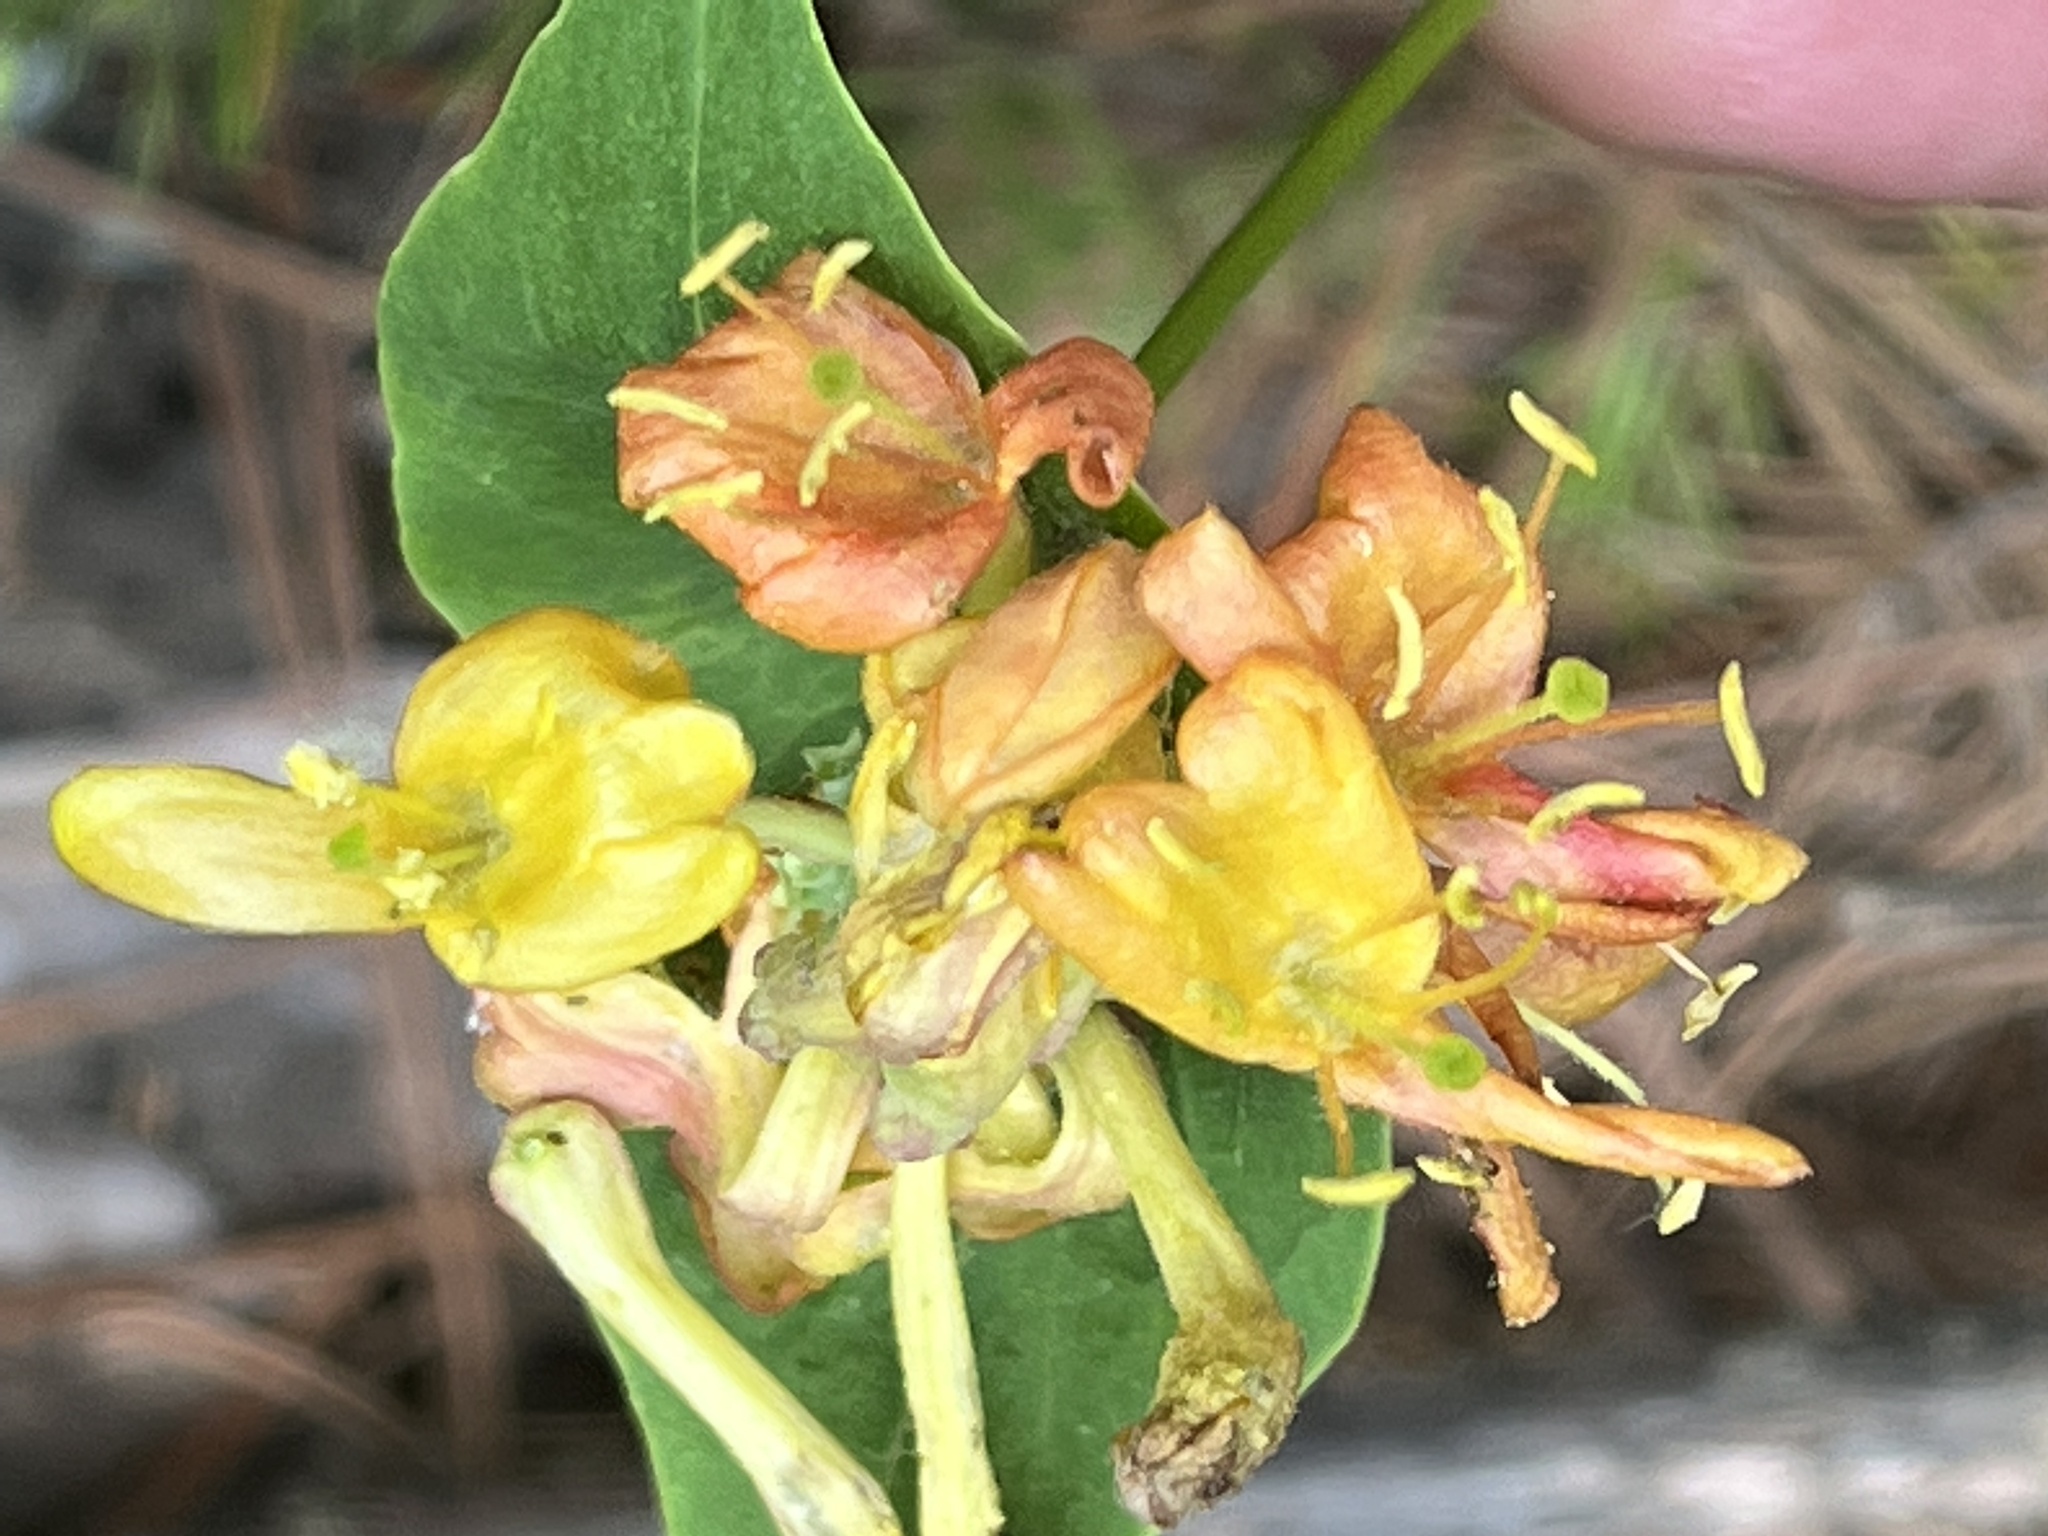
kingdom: Plantae
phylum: Tracheophyta
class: Magnoliopsida
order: Dipsacales
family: Caprifoliaceae
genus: Lonicera
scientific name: Lonicera dioica
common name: Limber honeysuckle
